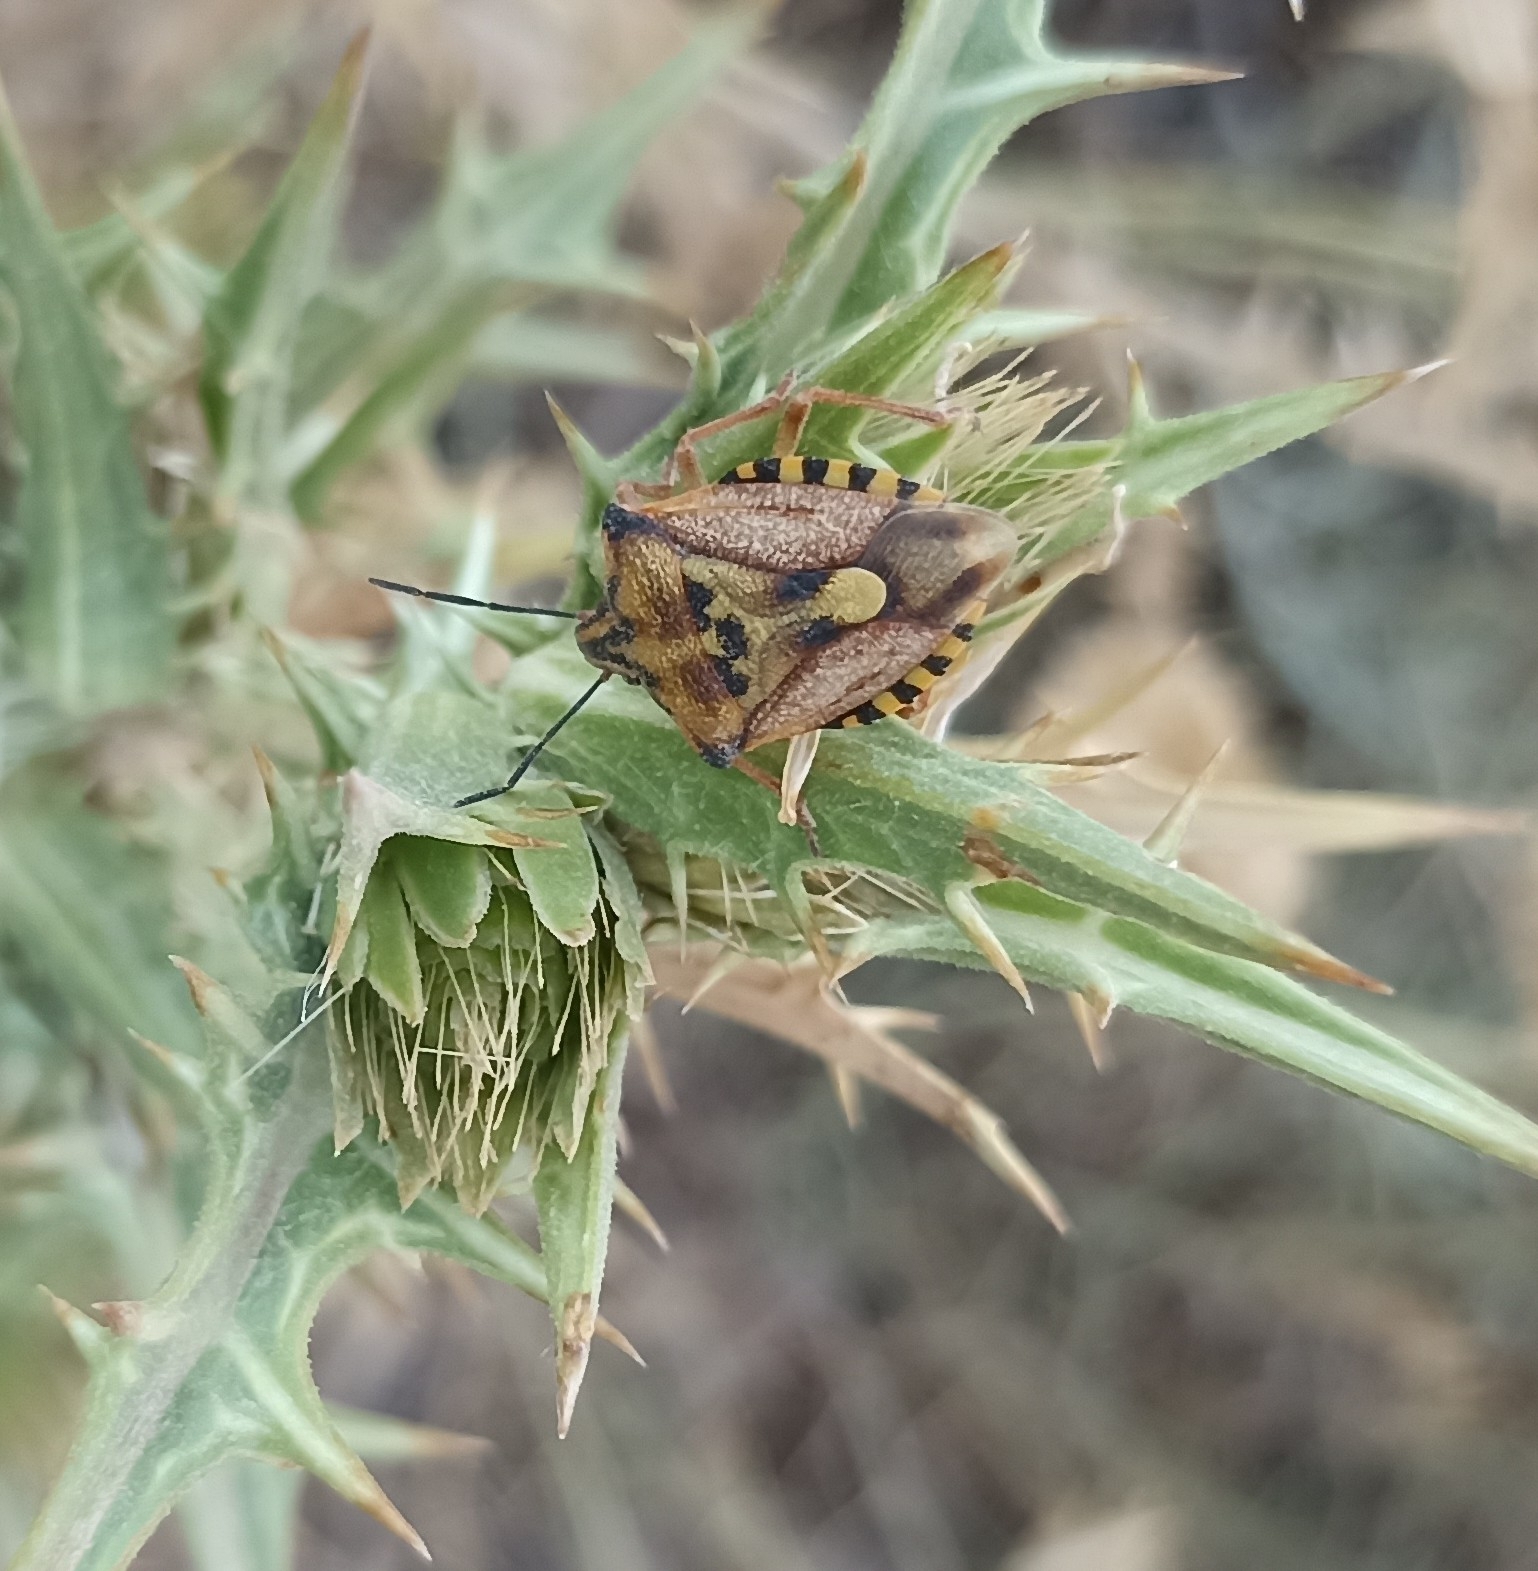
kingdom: Animalia
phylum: Arthropoda
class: Insecta
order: Hemiptera
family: Pentatomidae
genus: Carpocoris
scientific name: Carpocoris mediterraneus
